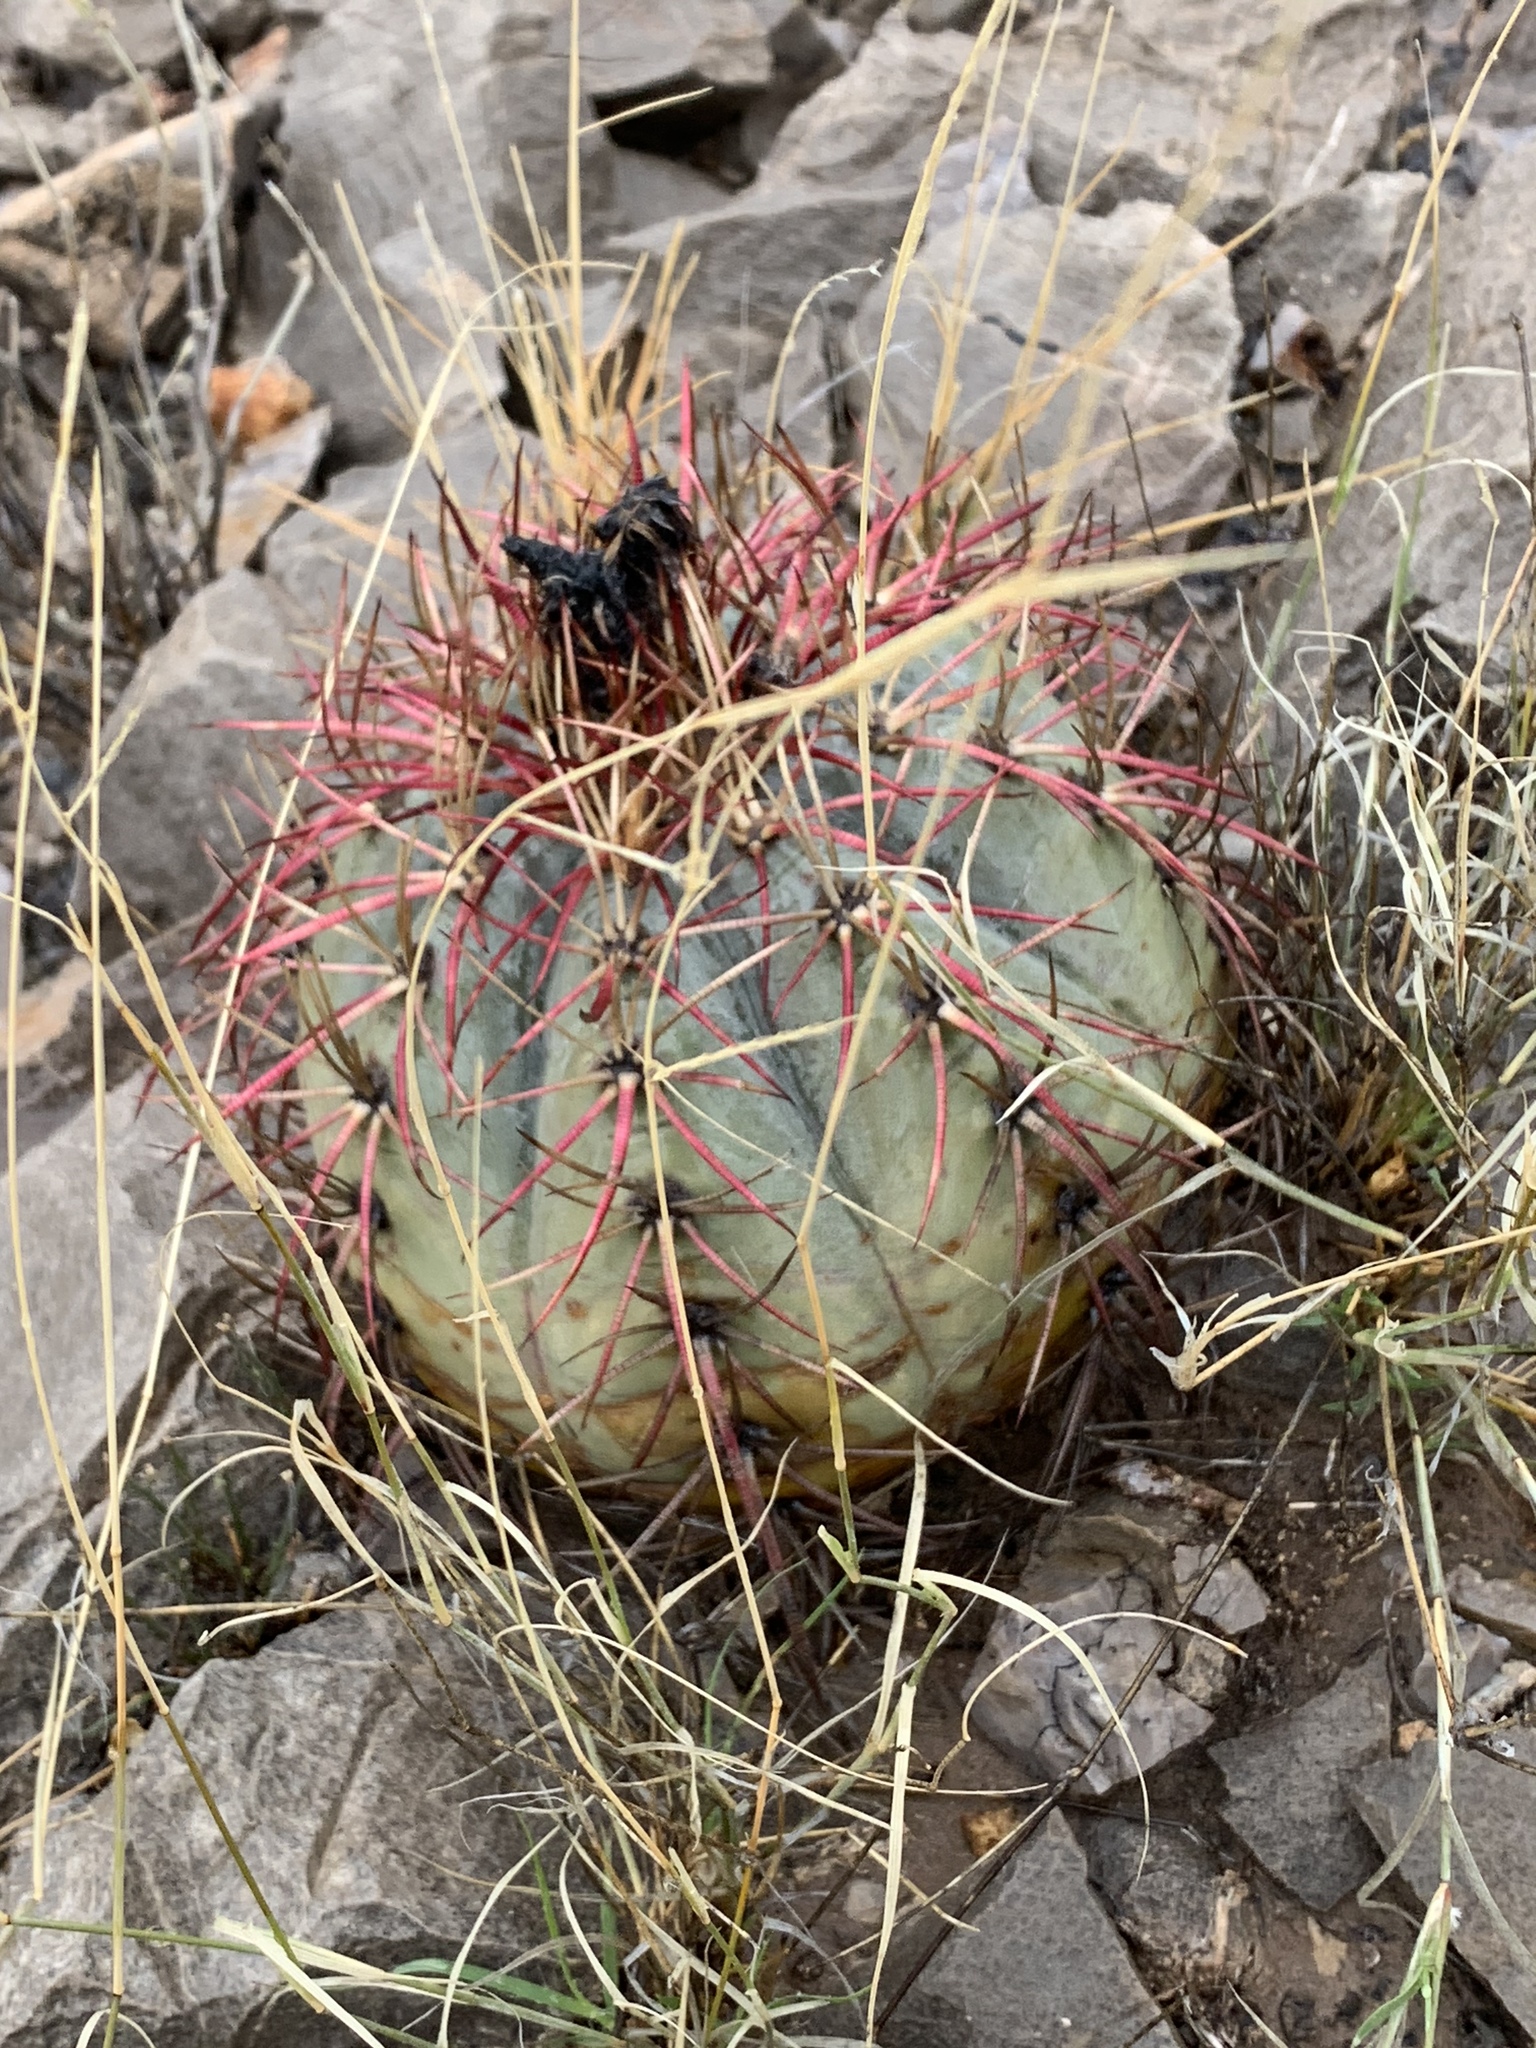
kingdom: Plantae
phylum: Tracheophyta
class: Magnoliopsida
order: Caryophyllales
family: Cactaceae
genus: Echinocactus
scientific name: Echinocactus horizonthalonius
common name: Devilshead
